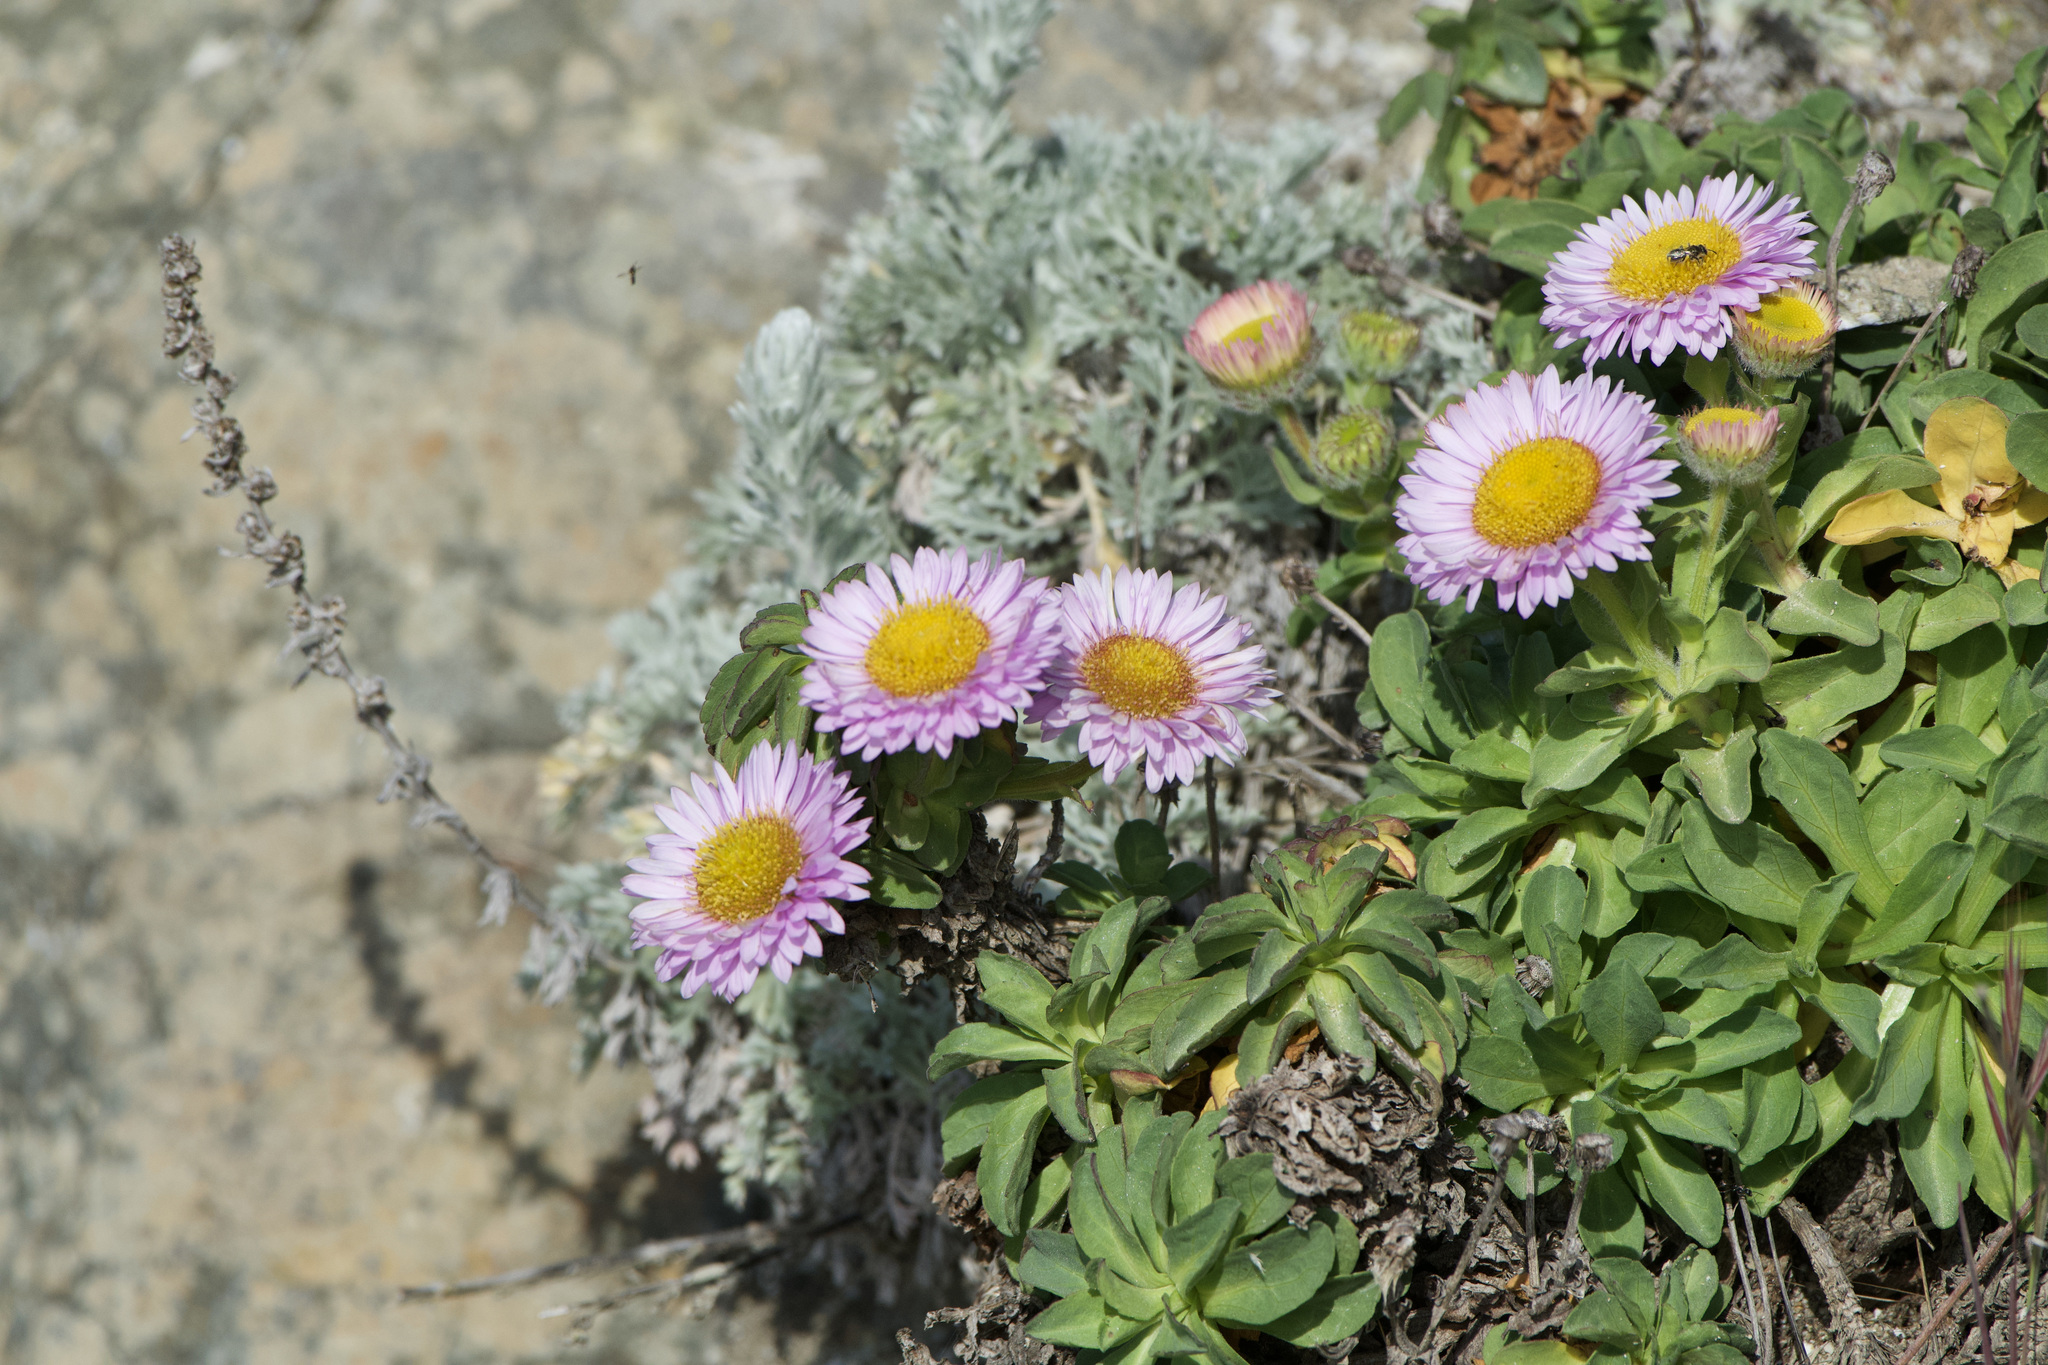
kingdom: Plantae
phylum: Tracheophyta
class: Magnoliopsida
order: Asterales
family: Asteraceae
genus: Erigeron
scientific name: Erigeron glaucus
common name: Seaside daisy
